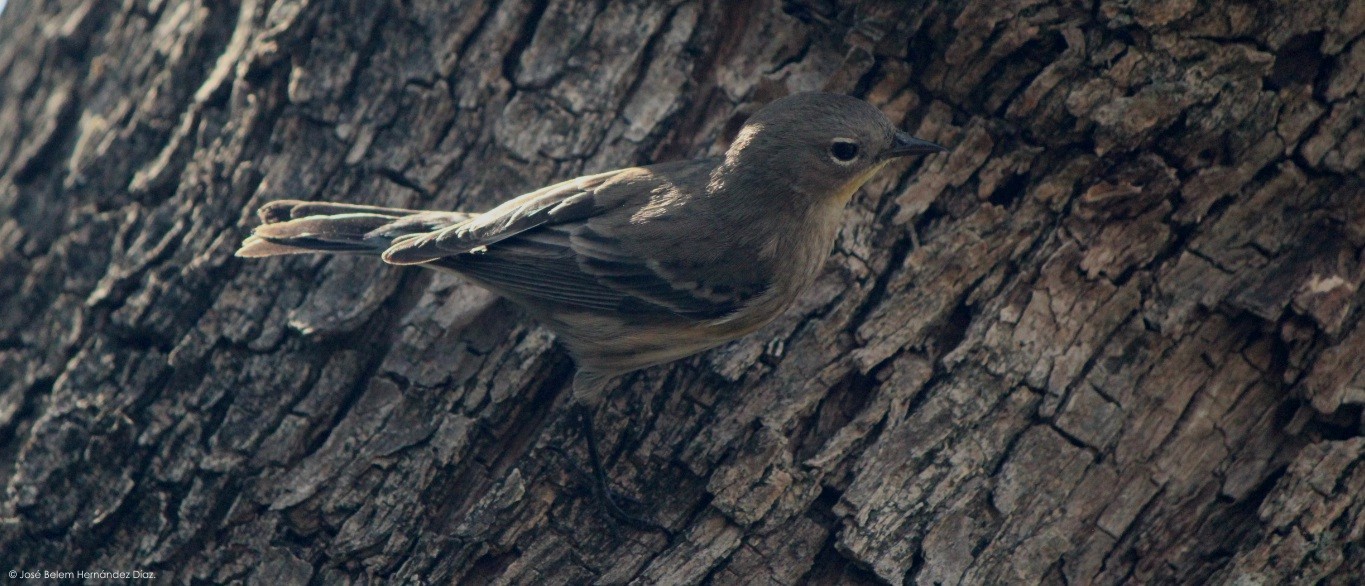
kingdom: Animalia
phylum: Chordata
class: Aves
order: Passeriformes
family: Parulidae
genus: Setophaga
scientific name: Setophaga auduboni
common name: Audubon's warbler
